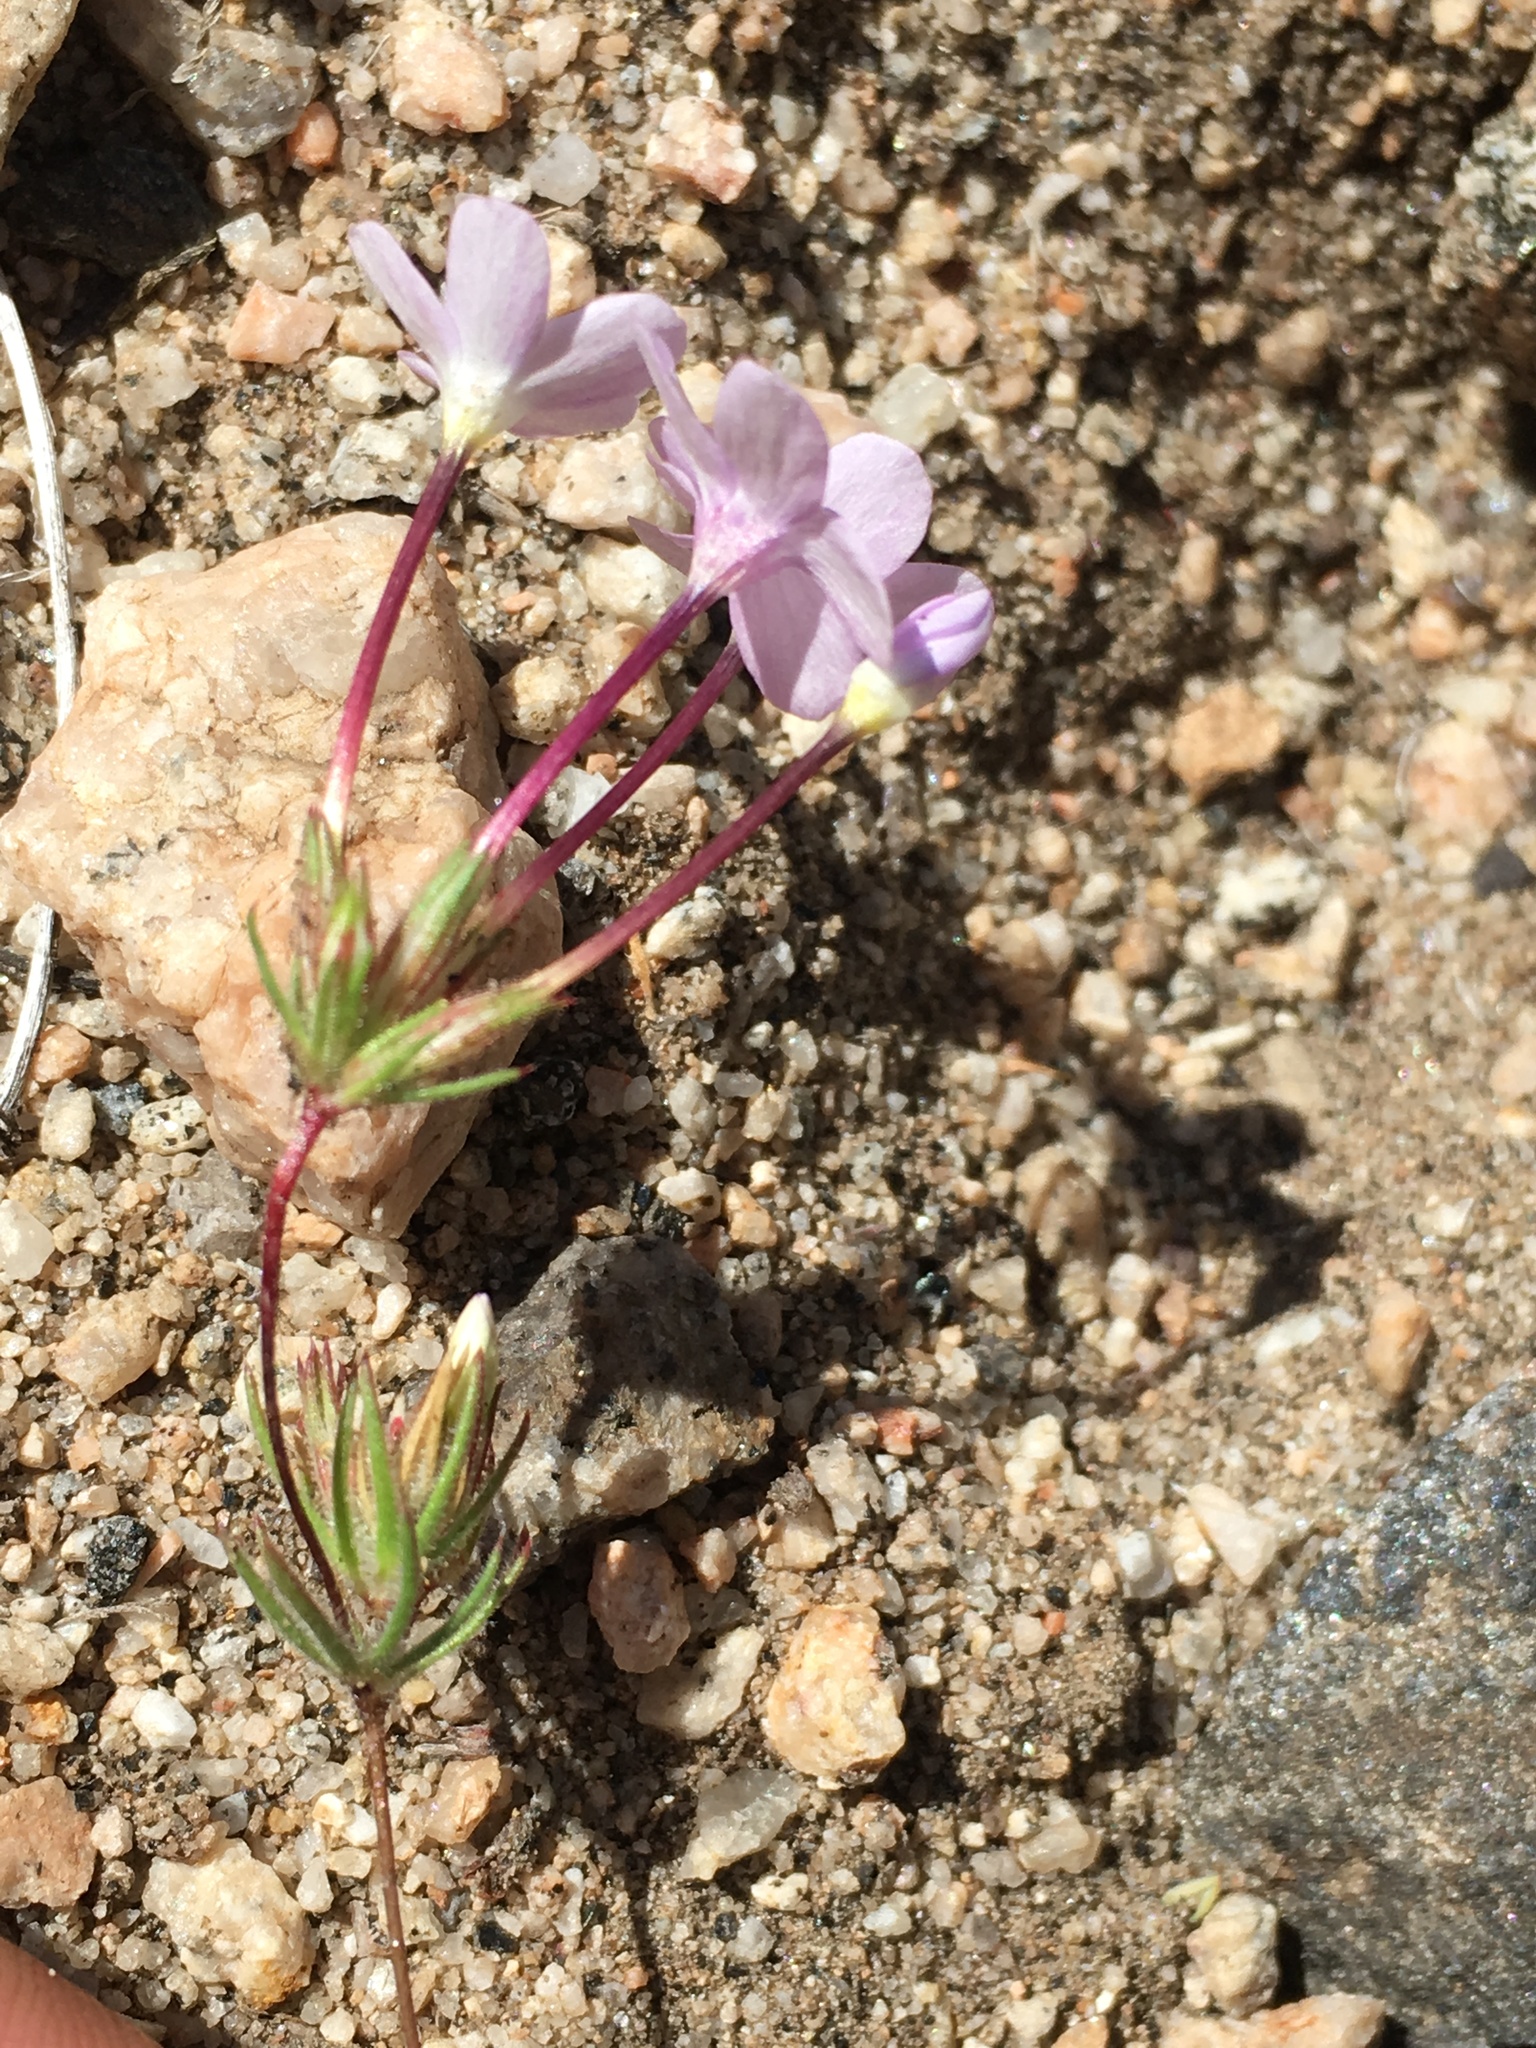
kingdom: Plantae
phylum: Tracheophyta
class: Magnoliopsida
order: Ericales
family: Polemoniaceae
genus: Leptosiphon
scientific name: Leptosiphon breviculus
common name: Mojave linanthus
